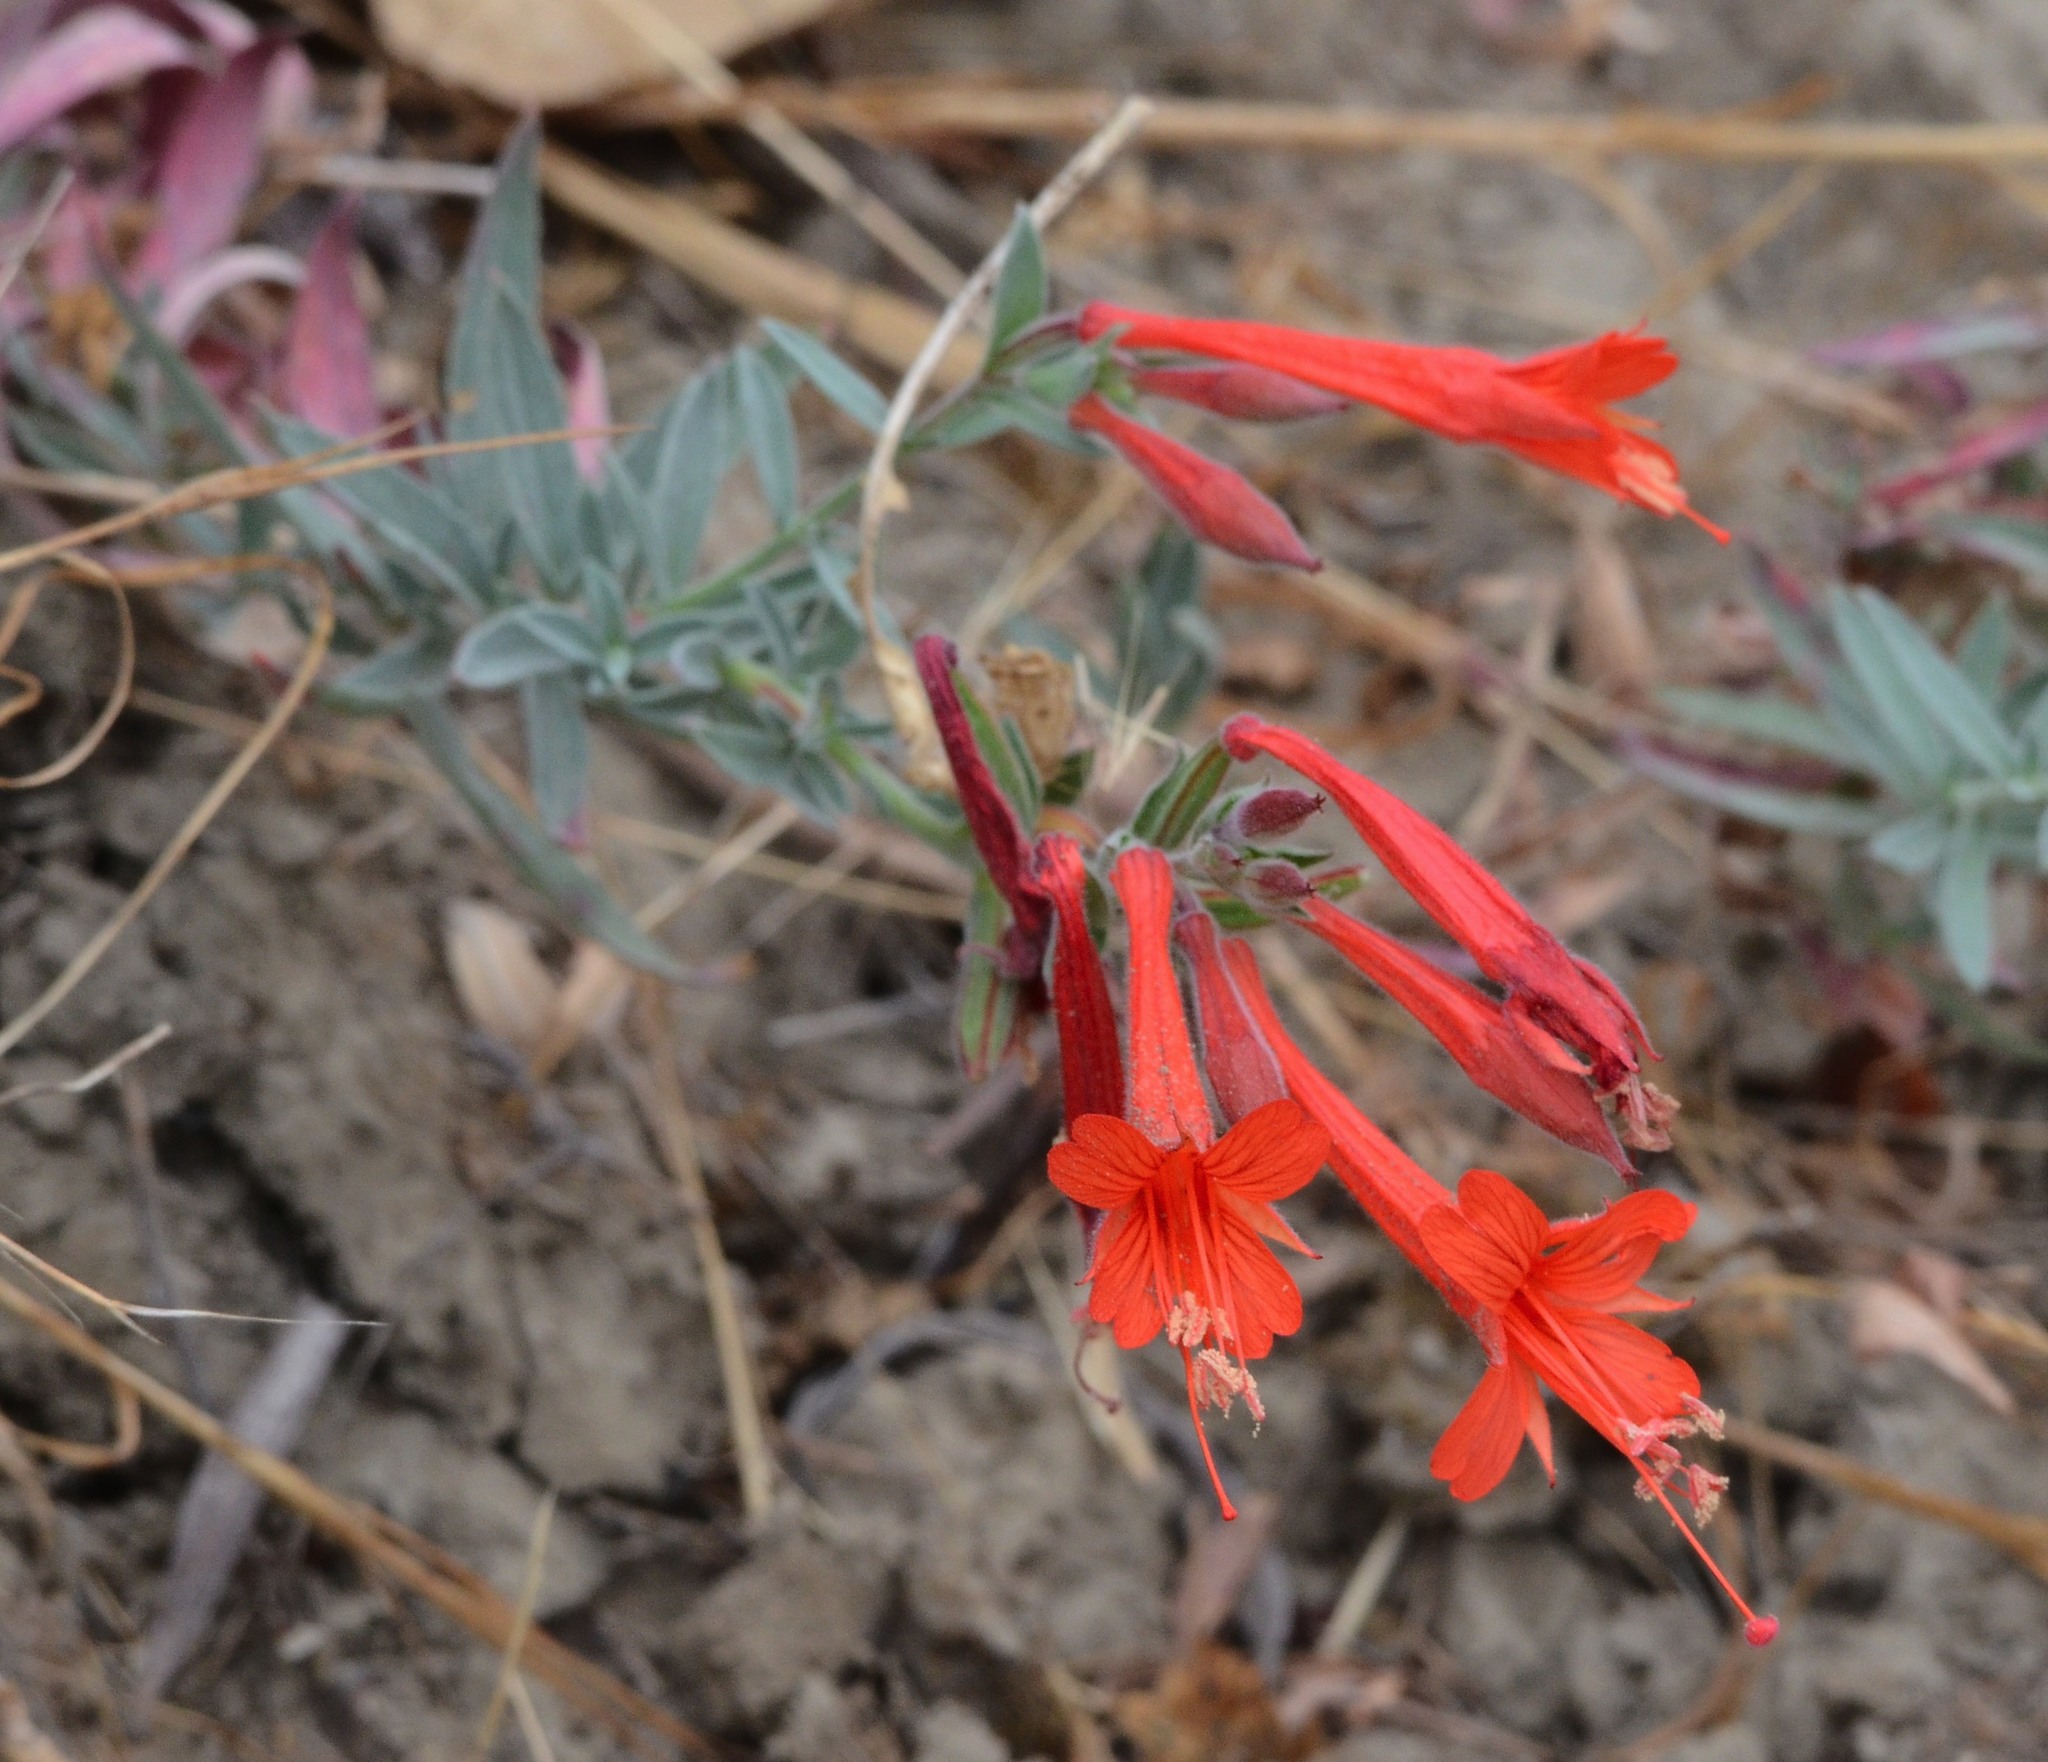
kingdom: Plantae
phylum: Tracheophyta
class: Magnoliopsida
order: Myrtales
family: Onagraceae
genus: Epilobium
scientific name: Epilobium canum
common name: California-fuchsia
